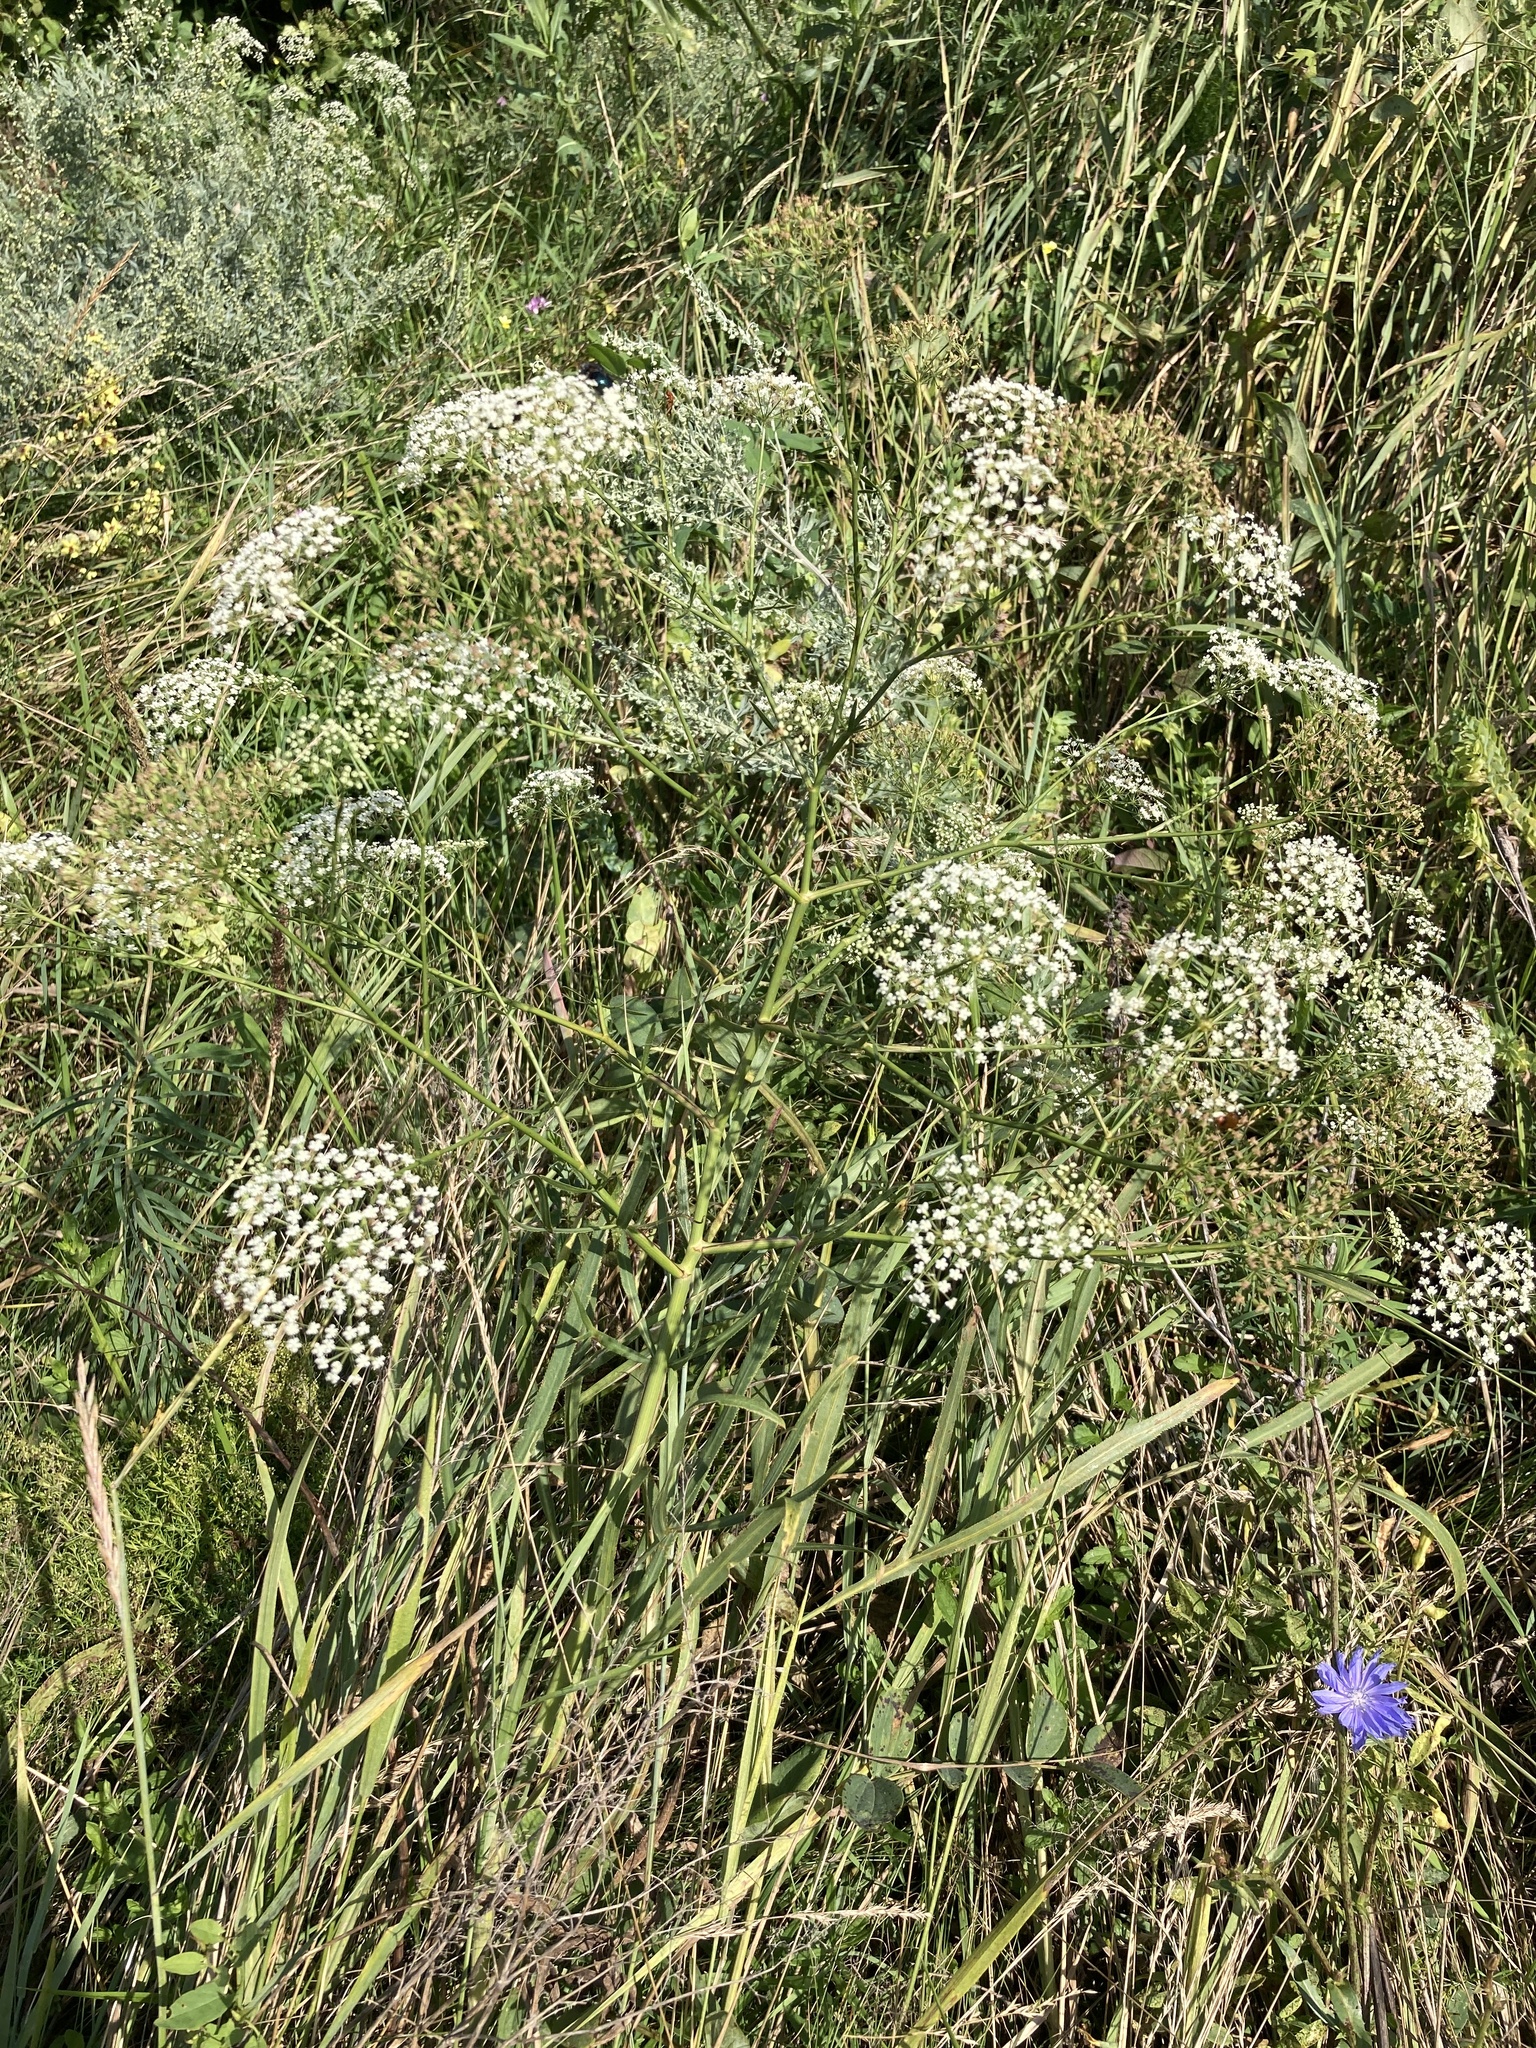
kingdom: Plantae
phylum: Tracheophyta
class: Magnoliopsida
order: Apiales
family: Apiaceae
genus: Falcaria
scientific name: Falcaria vulgaris
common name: Longleaf
